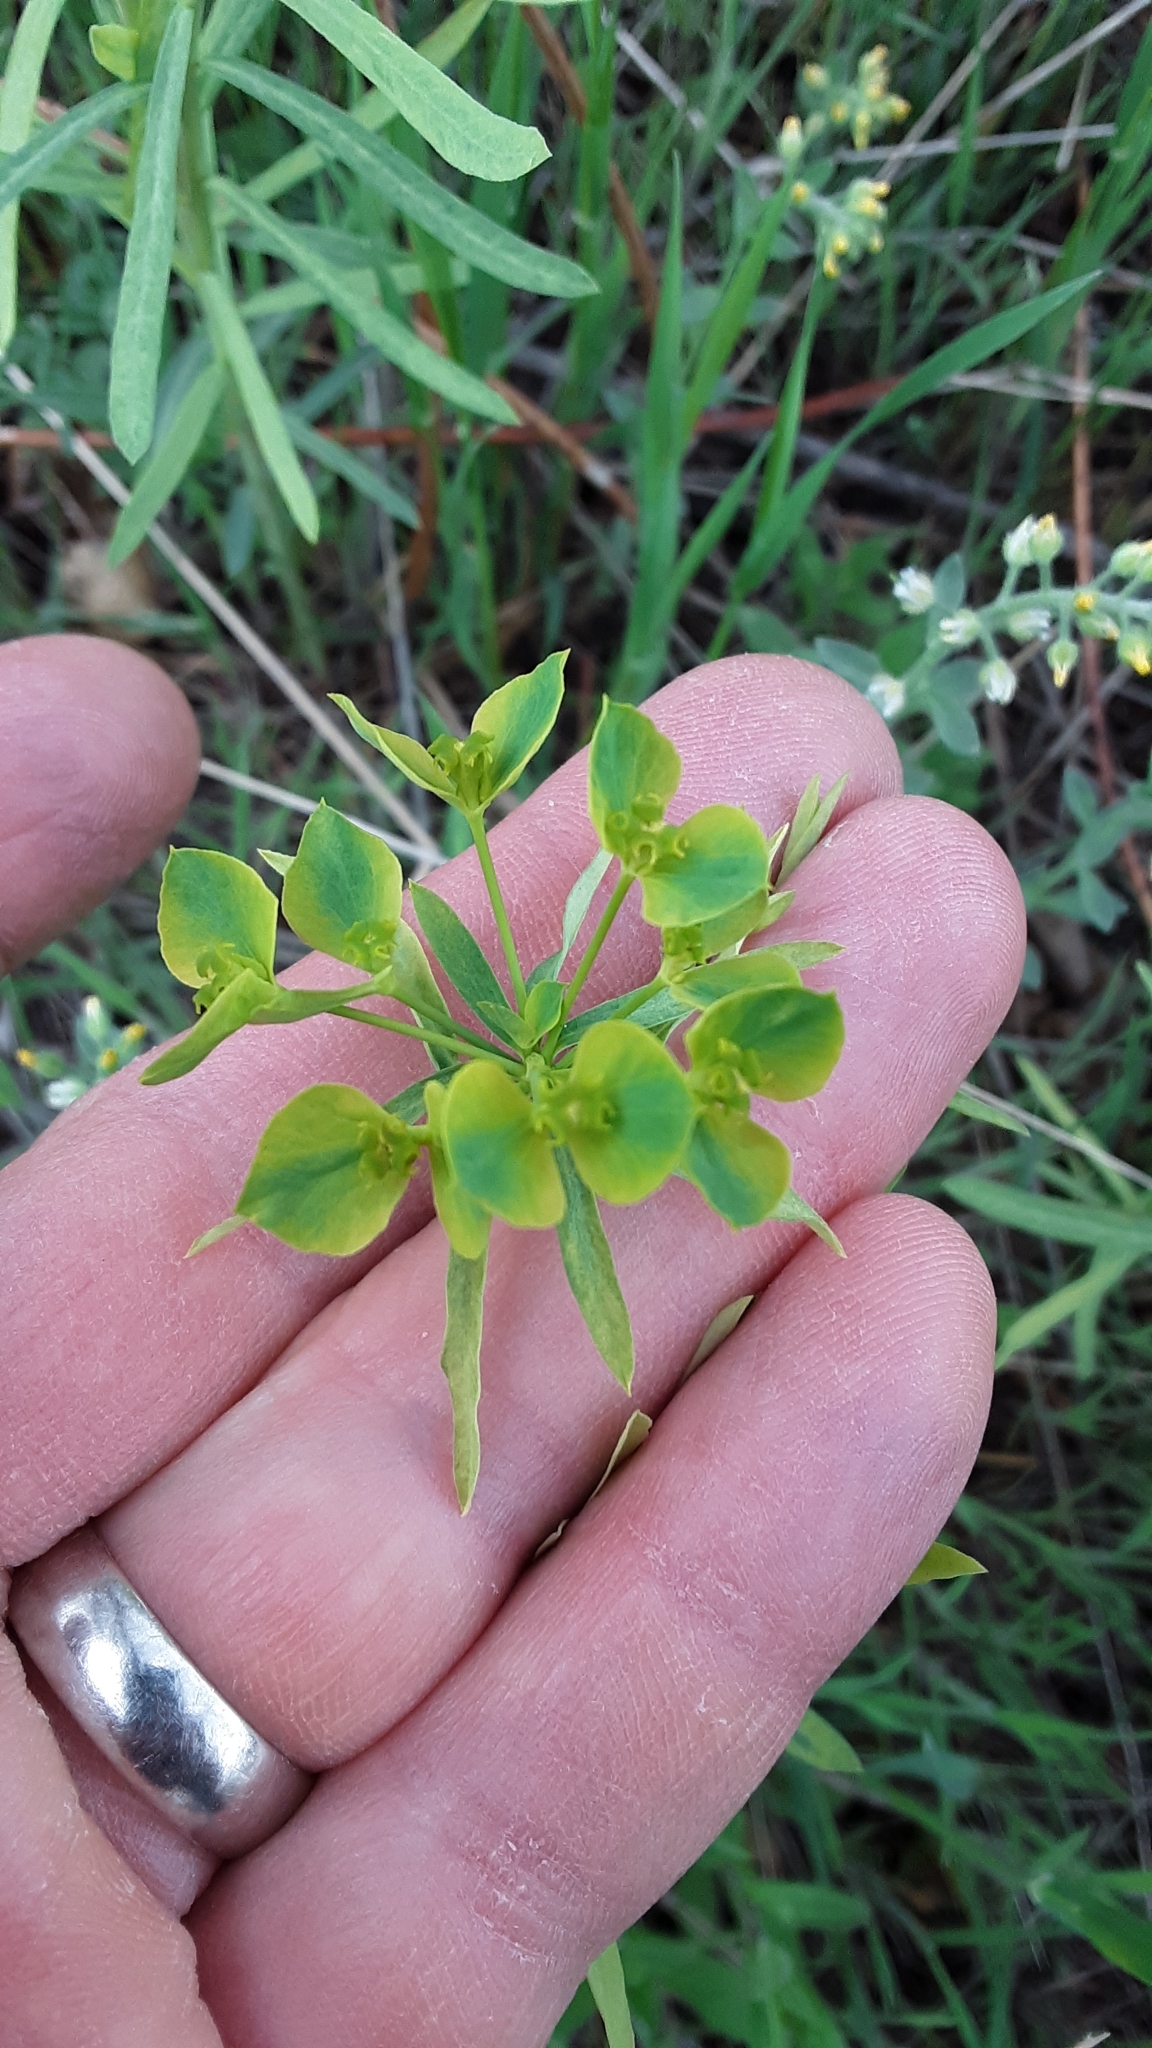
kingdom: Plantae
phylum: Tracheophyta
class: Magnoliopsida
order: Malpighiales
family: Euphorbiaceae
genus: Euphorbia
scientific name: Euphorbia virgata
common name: Leafy spurge
